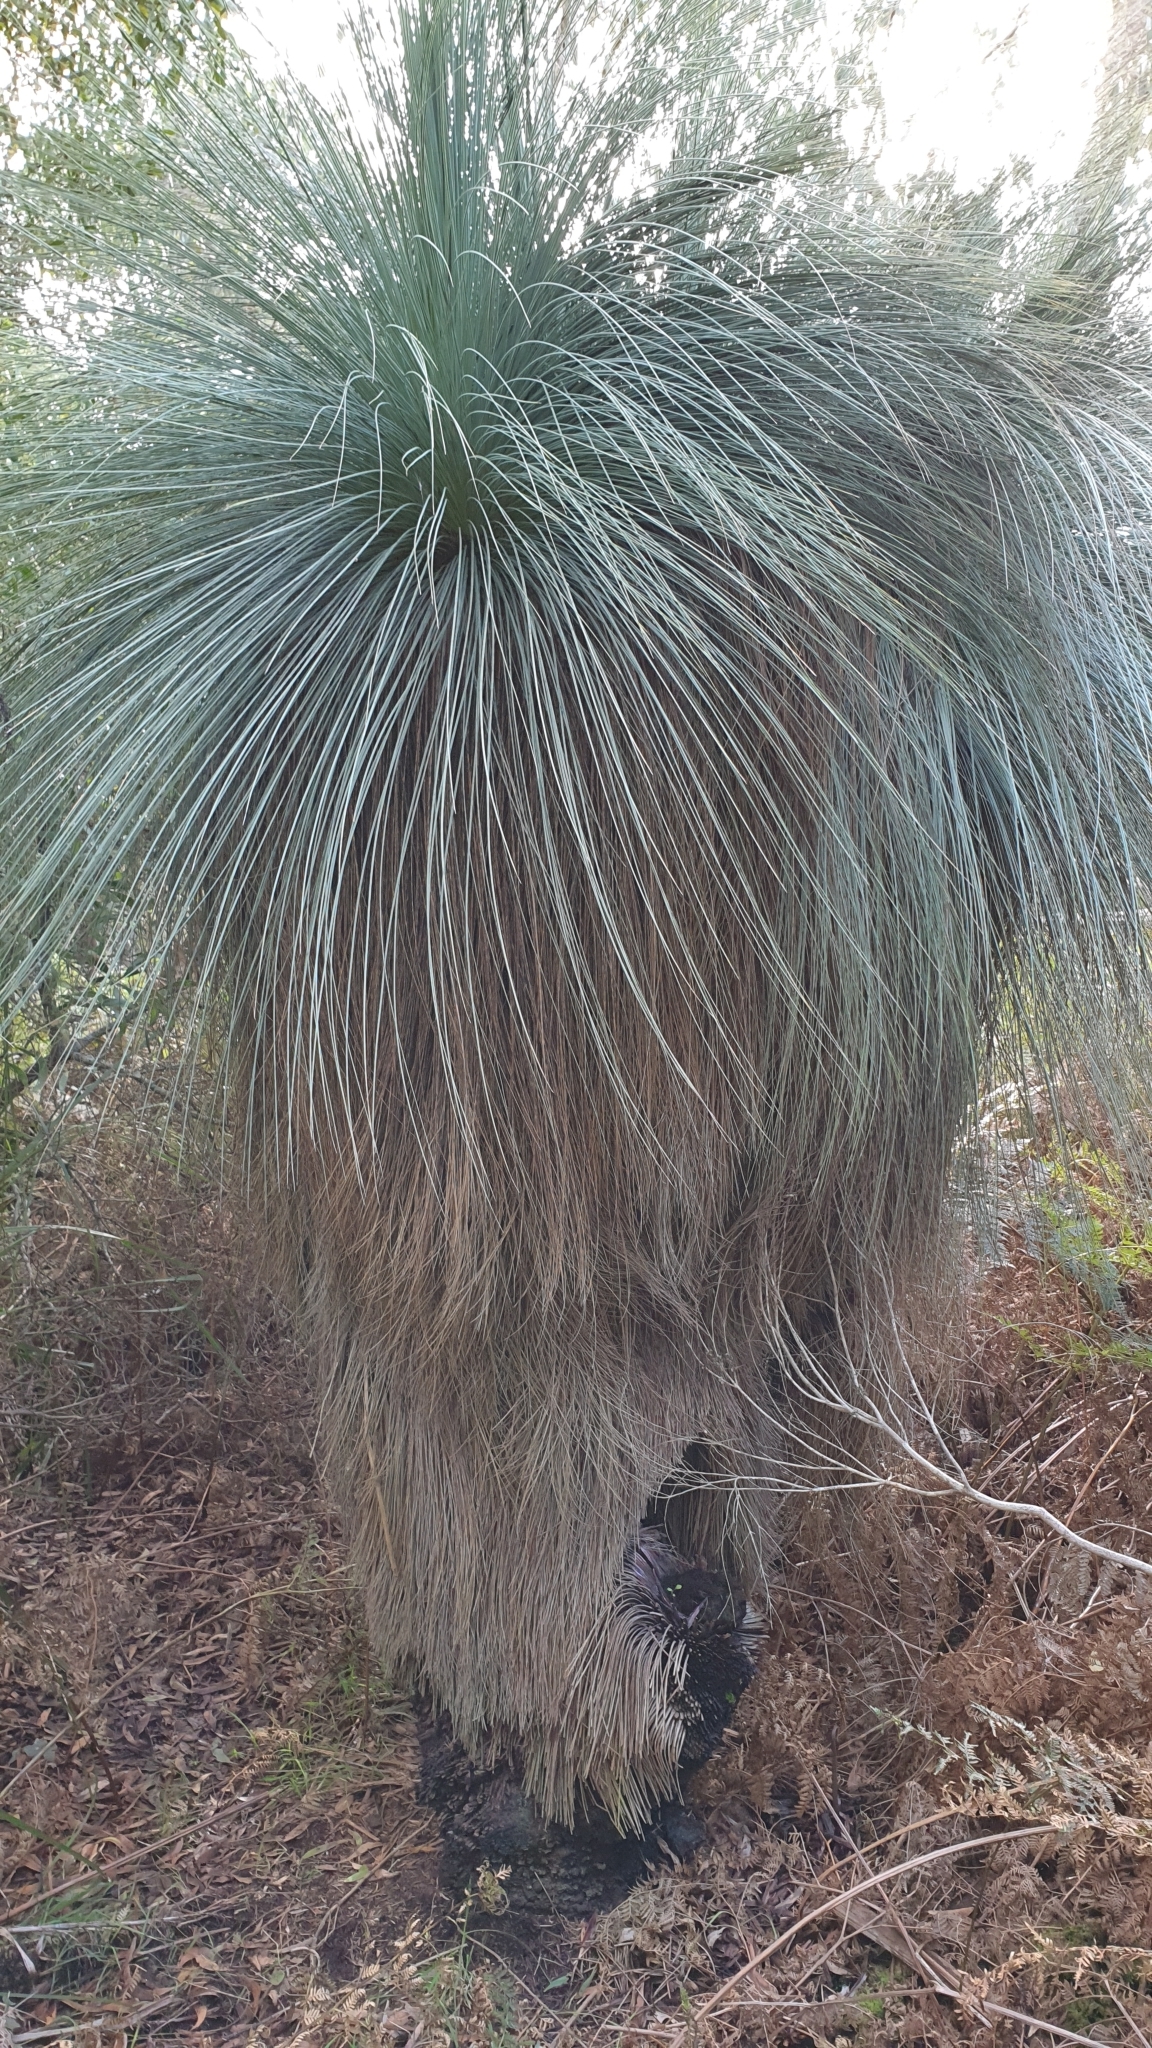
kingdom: Plantae
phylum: Tracheophyta
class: Liliopsida
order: Asparagales
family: Asphodelaceae
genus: Xanthorrhoea
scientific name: Xanthorrhoea australis
